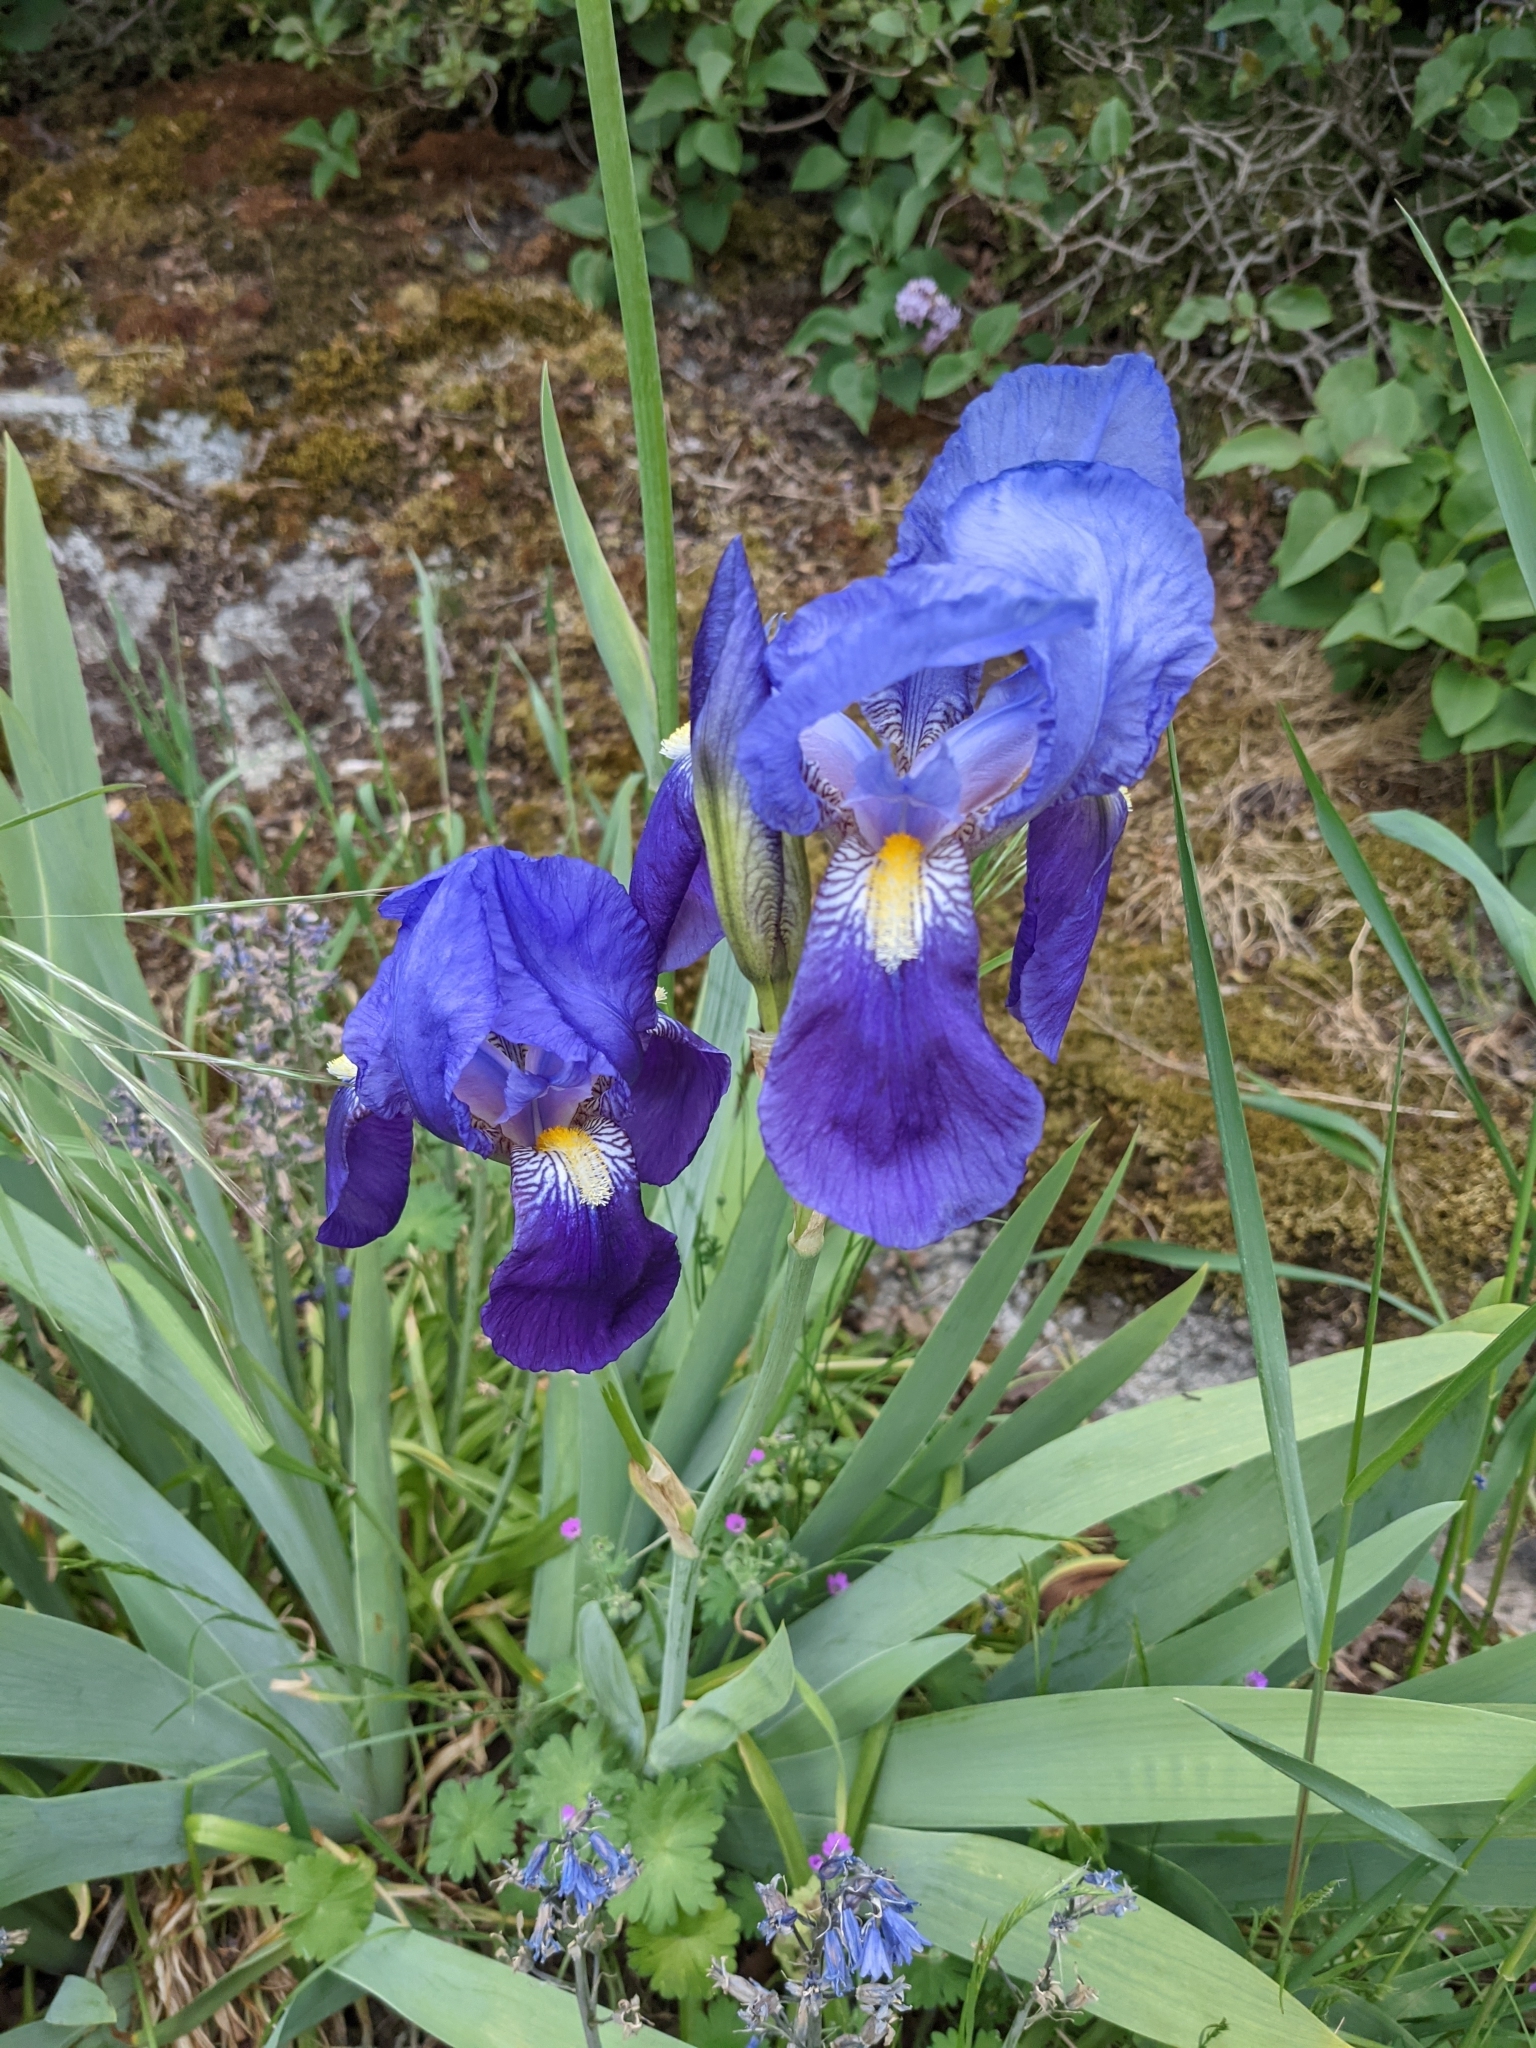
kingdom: Plantae
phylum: Tracheophyta
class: Liliopsida
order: Asparagales
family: Iridaceae
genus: Iris
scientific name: Iris germanica
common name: German iris
